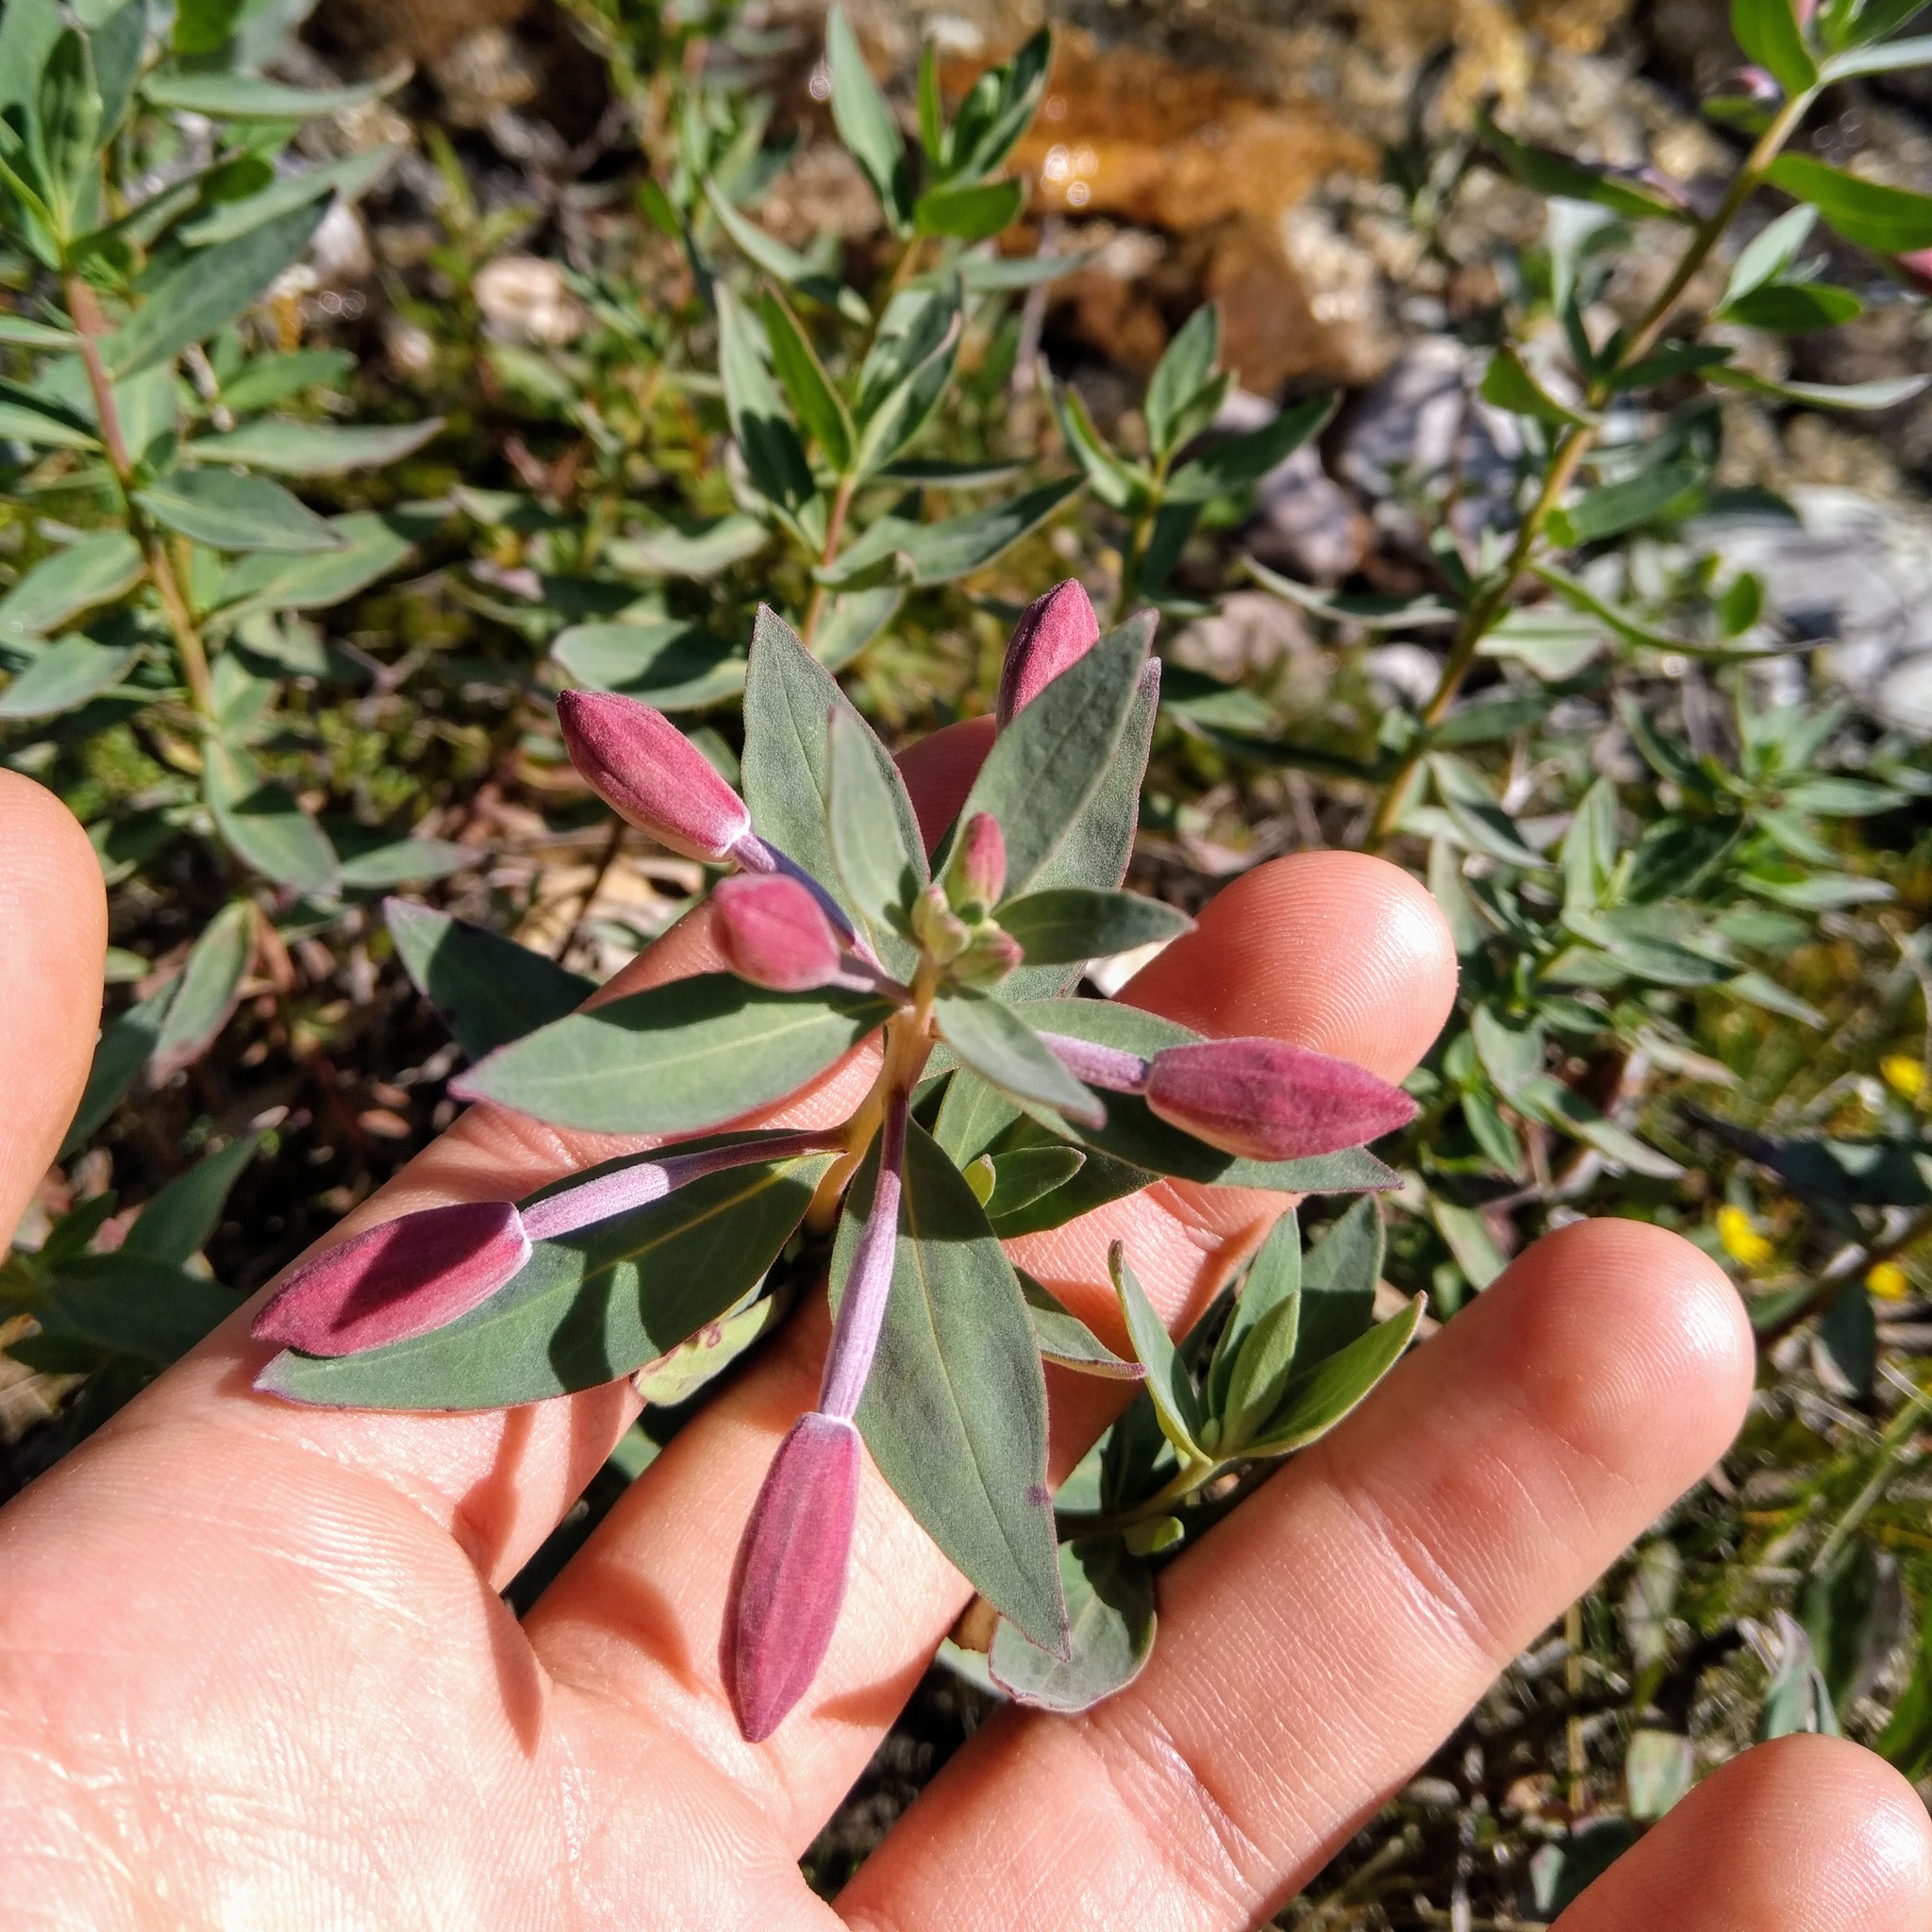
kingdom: Plantae
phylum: Tracheophyta
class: Magnoliopsida
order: Myrtales
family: Onagraceae
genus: Chamaenerion
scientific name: Chamaenerion latifolium
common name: Dwarf fireweed
